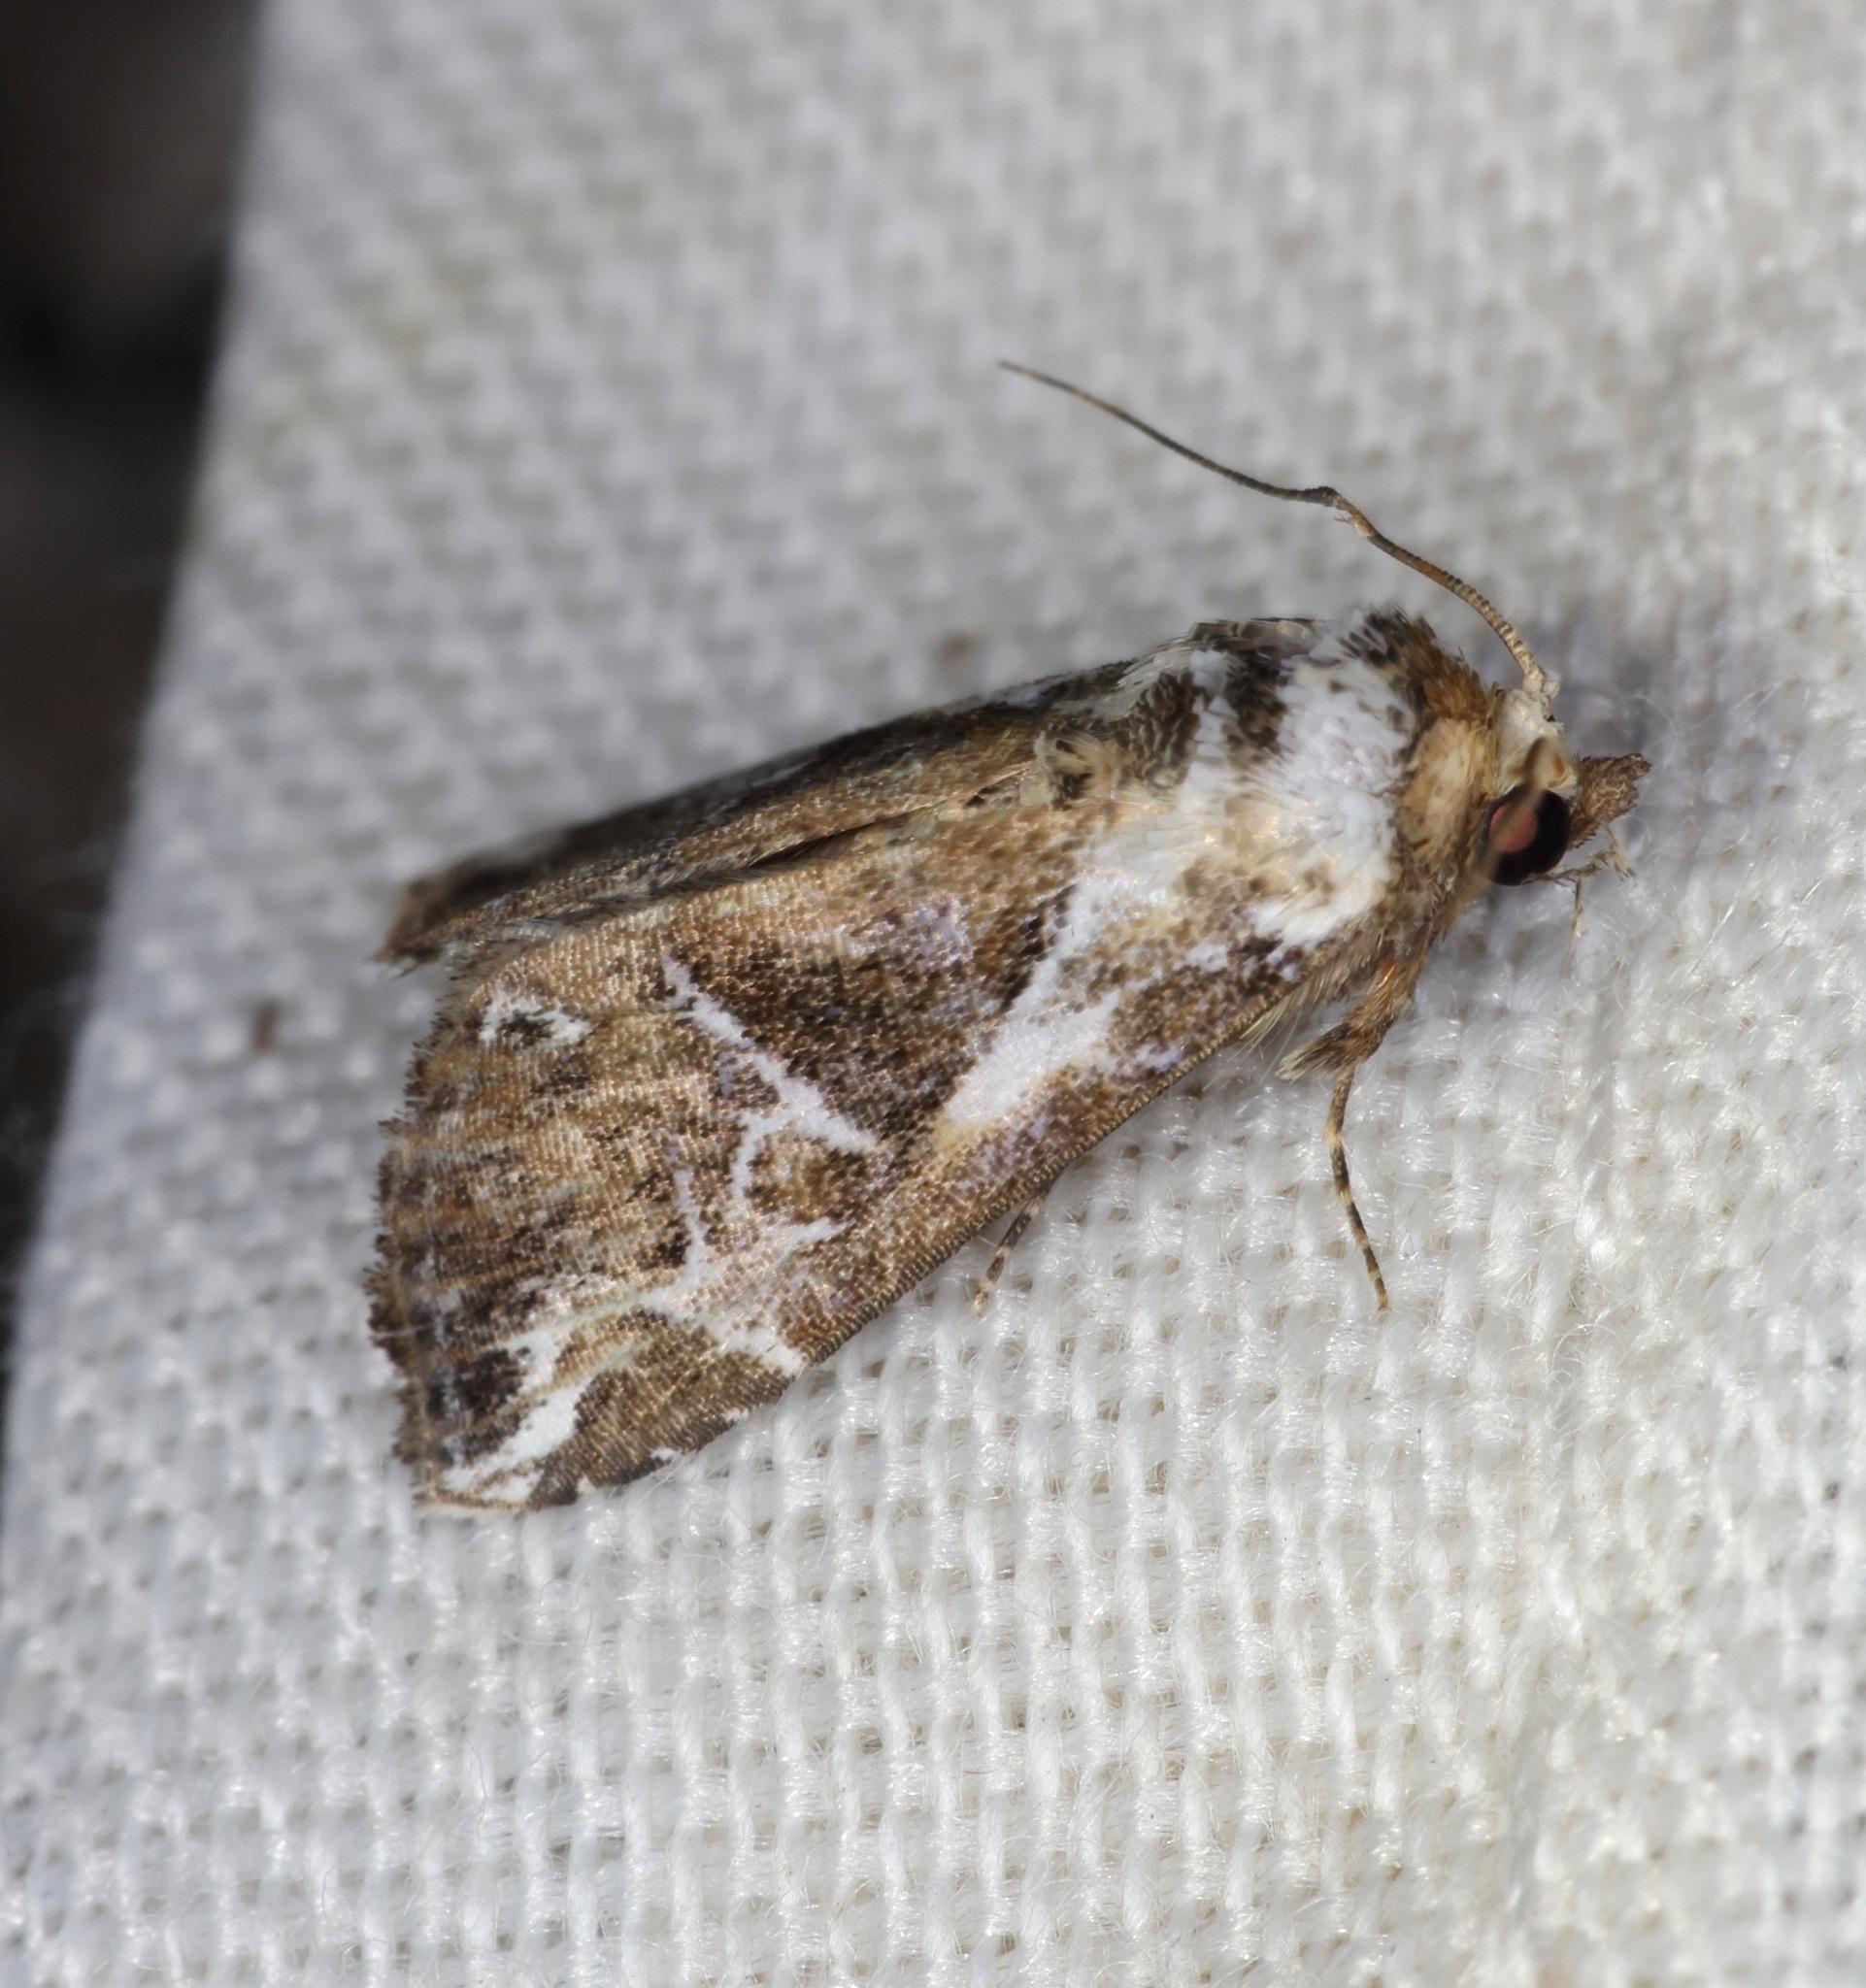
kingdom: Animalia
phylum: Arthropoda
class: Insecta
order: Lepidoptera
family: Erebidae
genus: Chorsia
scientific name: Chorsia albiscriptus
